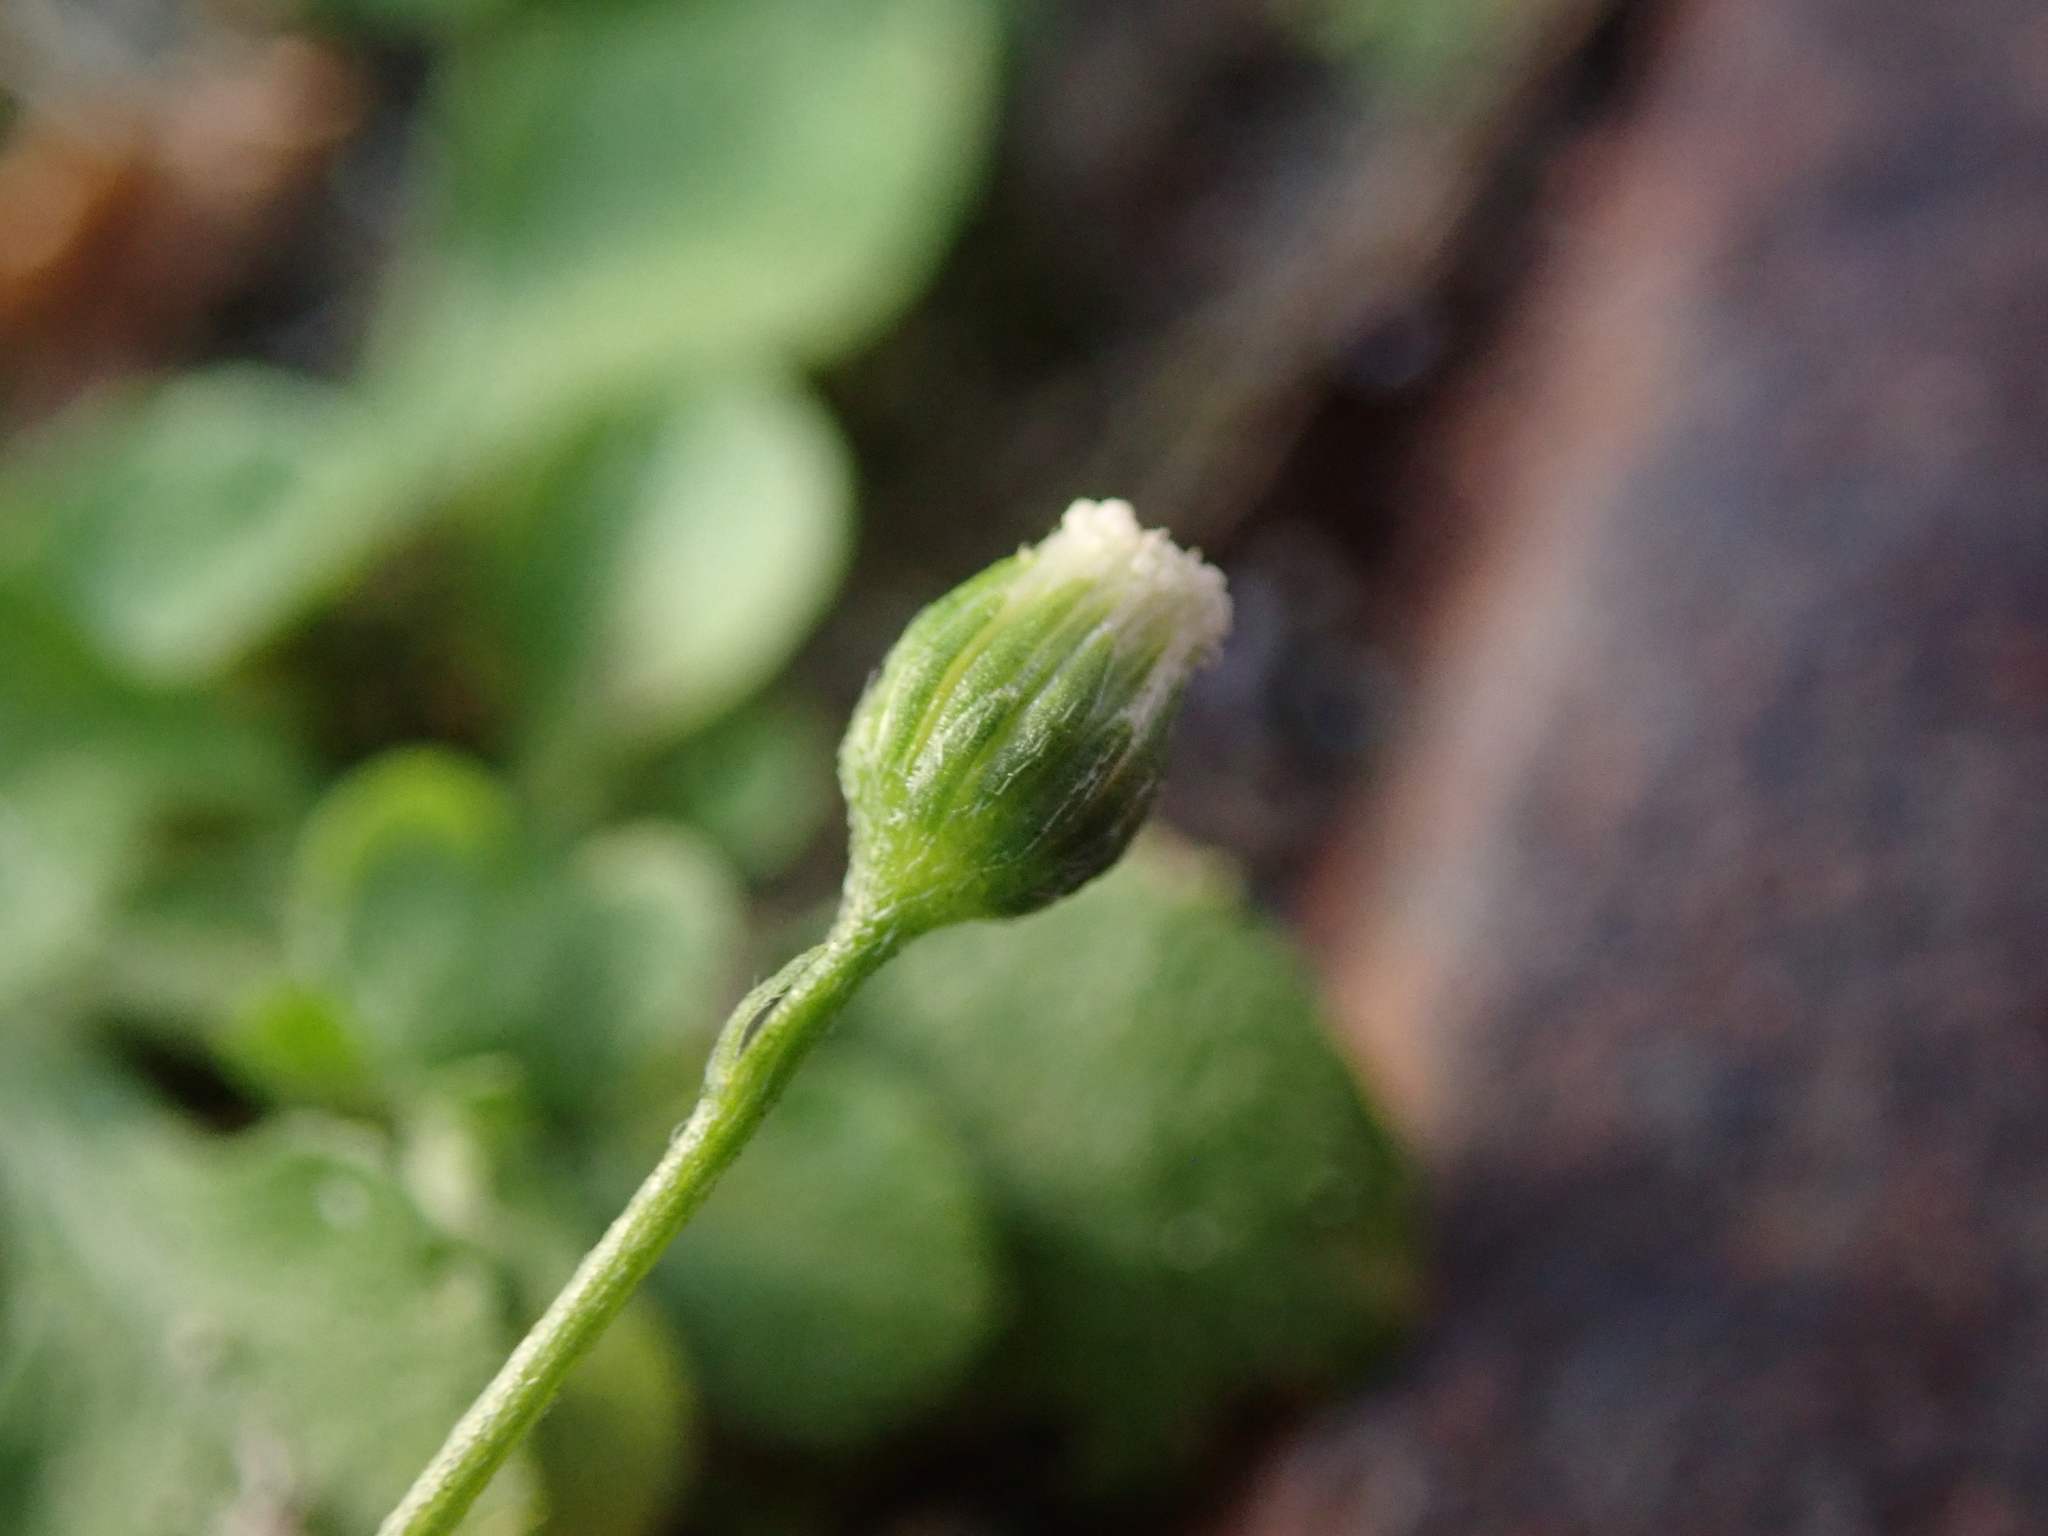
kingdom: Plantae
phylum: Tracheophyta
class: Magnoliopsida
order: Asterales
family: Asteraceae
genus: Erigeron
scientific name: Erigeron bellioides
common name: Bellorita
